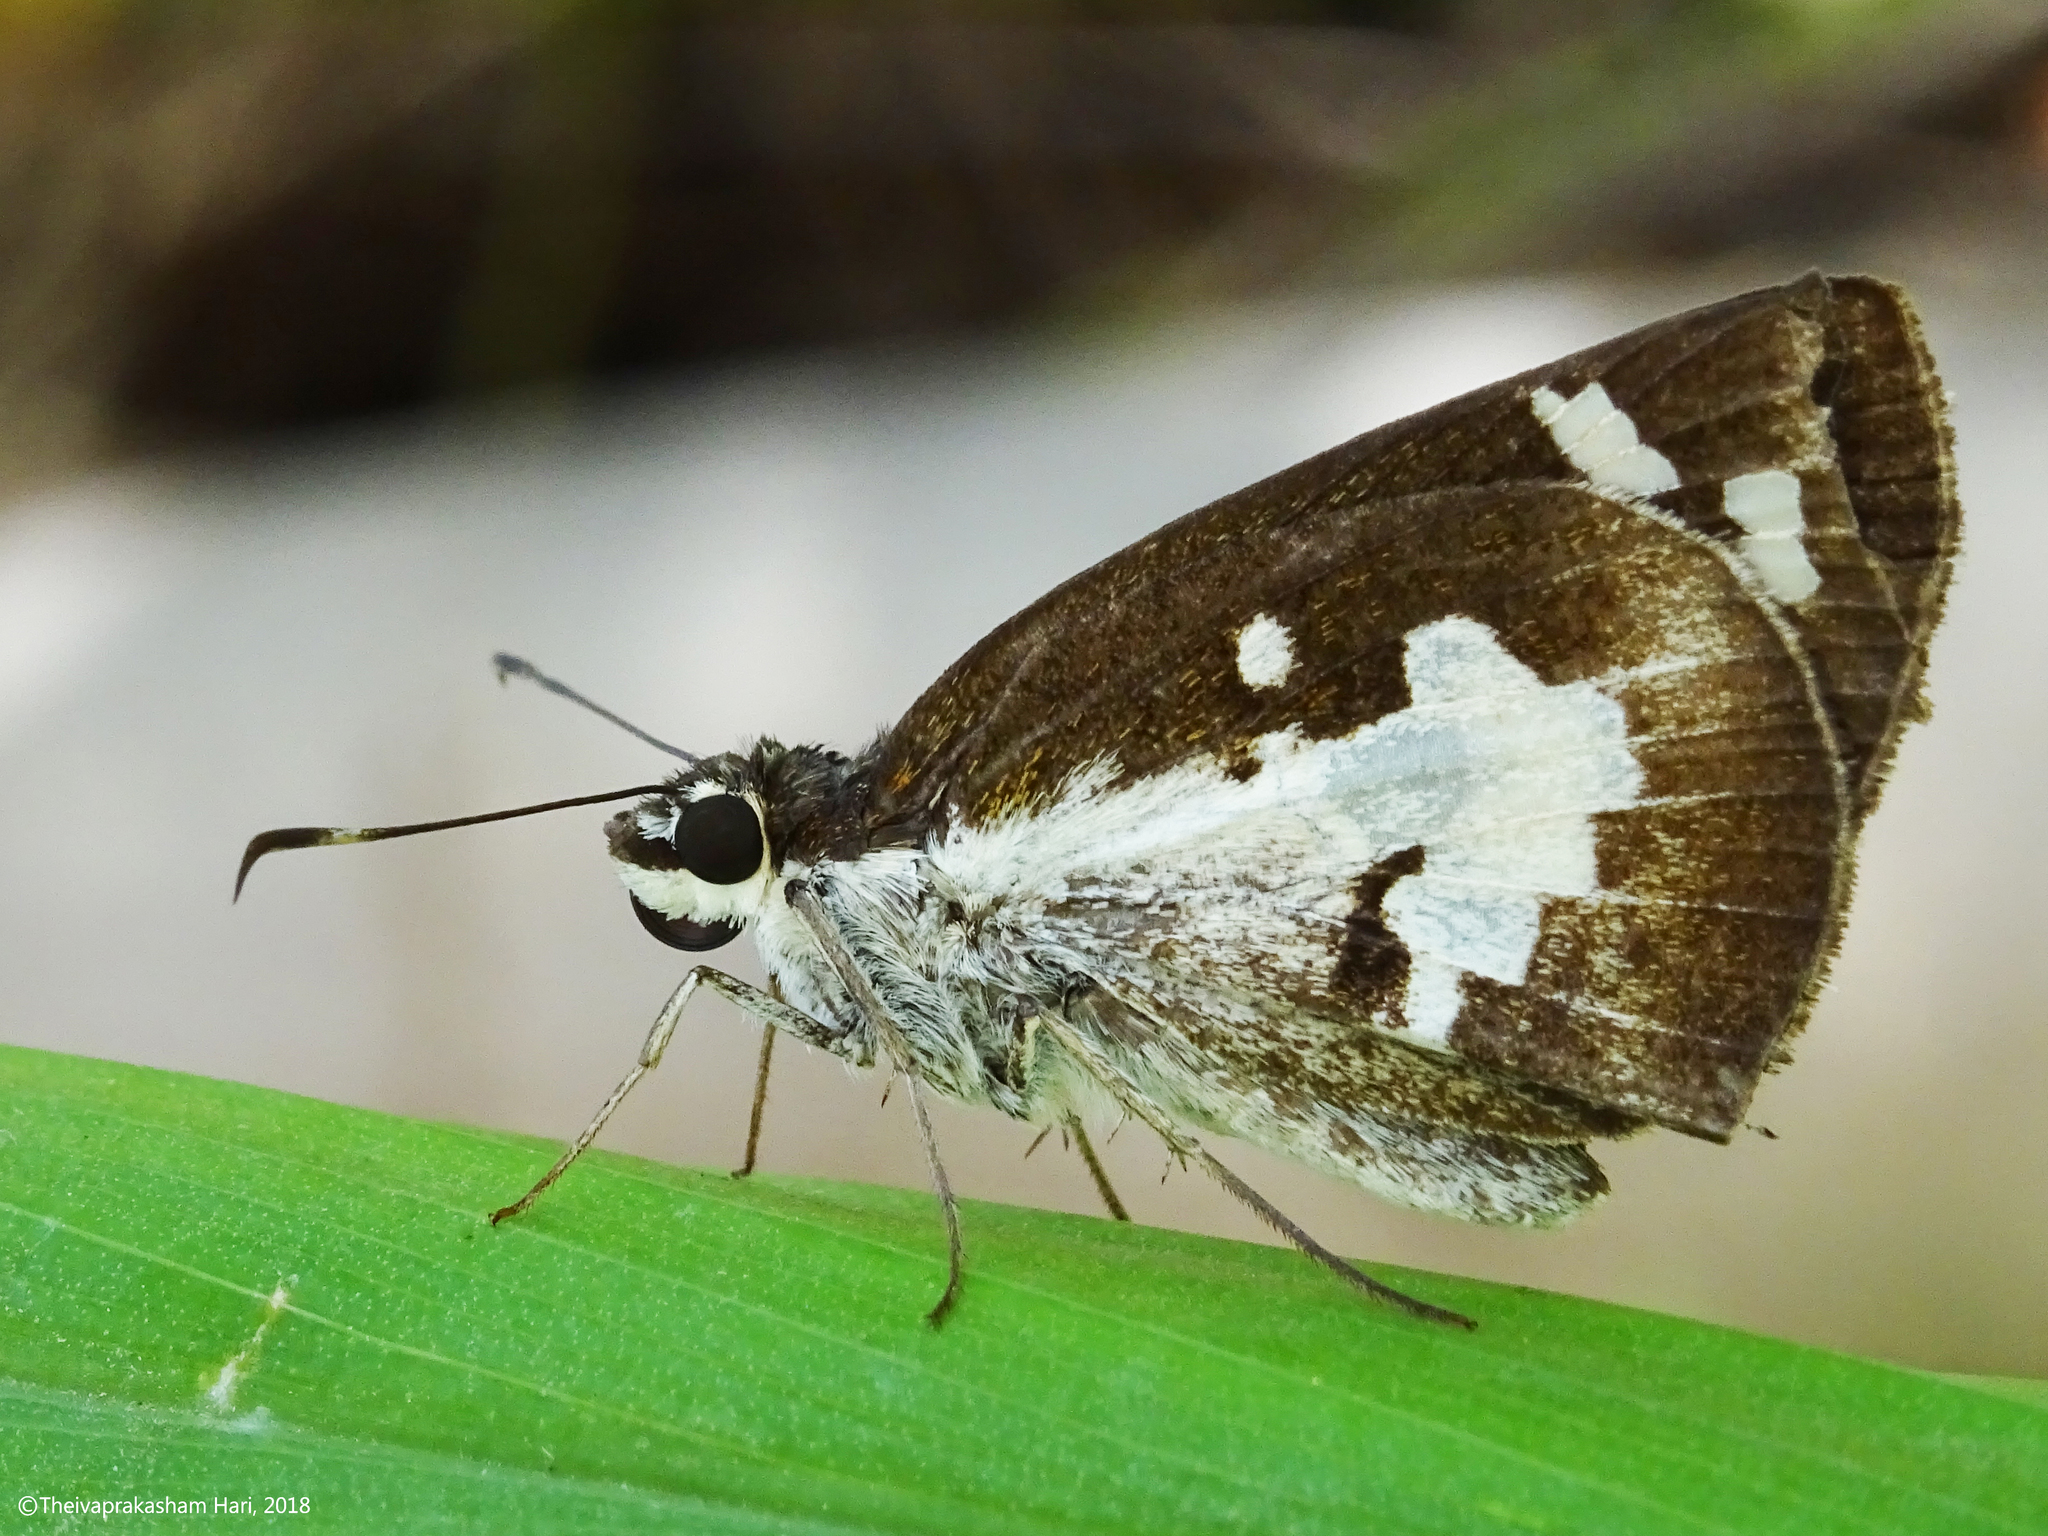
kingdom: Animalia
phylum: Arthropoda
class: Insecta
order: Lepidoptera
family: Hesperiidae
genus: Udaspes
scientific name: Udaspes folus
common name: Grass demon
